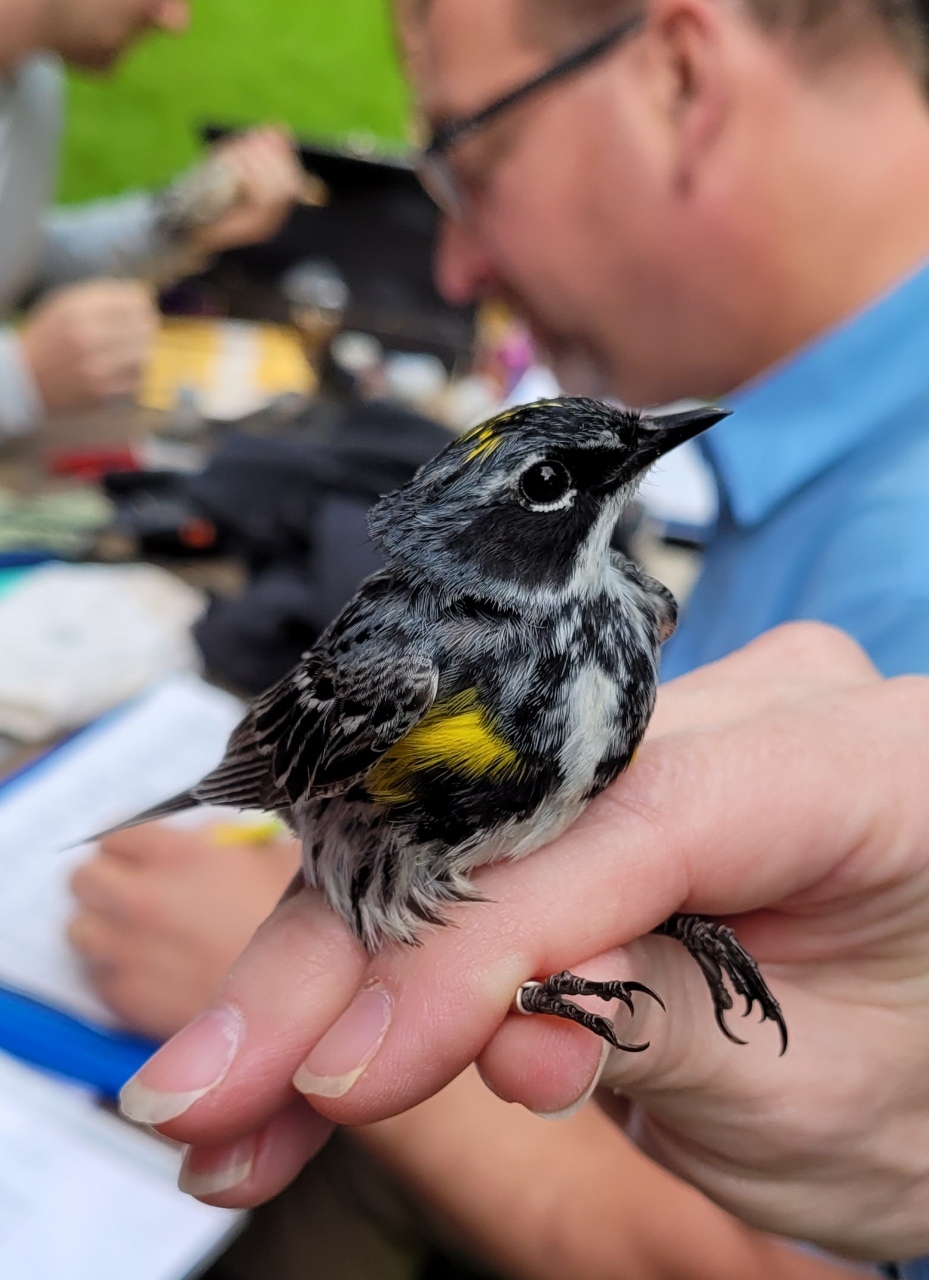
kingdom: Animalia
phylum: Chordata
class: Aves
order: Passeriformes
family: Parulidae
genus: Setophaga
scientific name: Setophaga coronata
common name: Myrtle warbler
